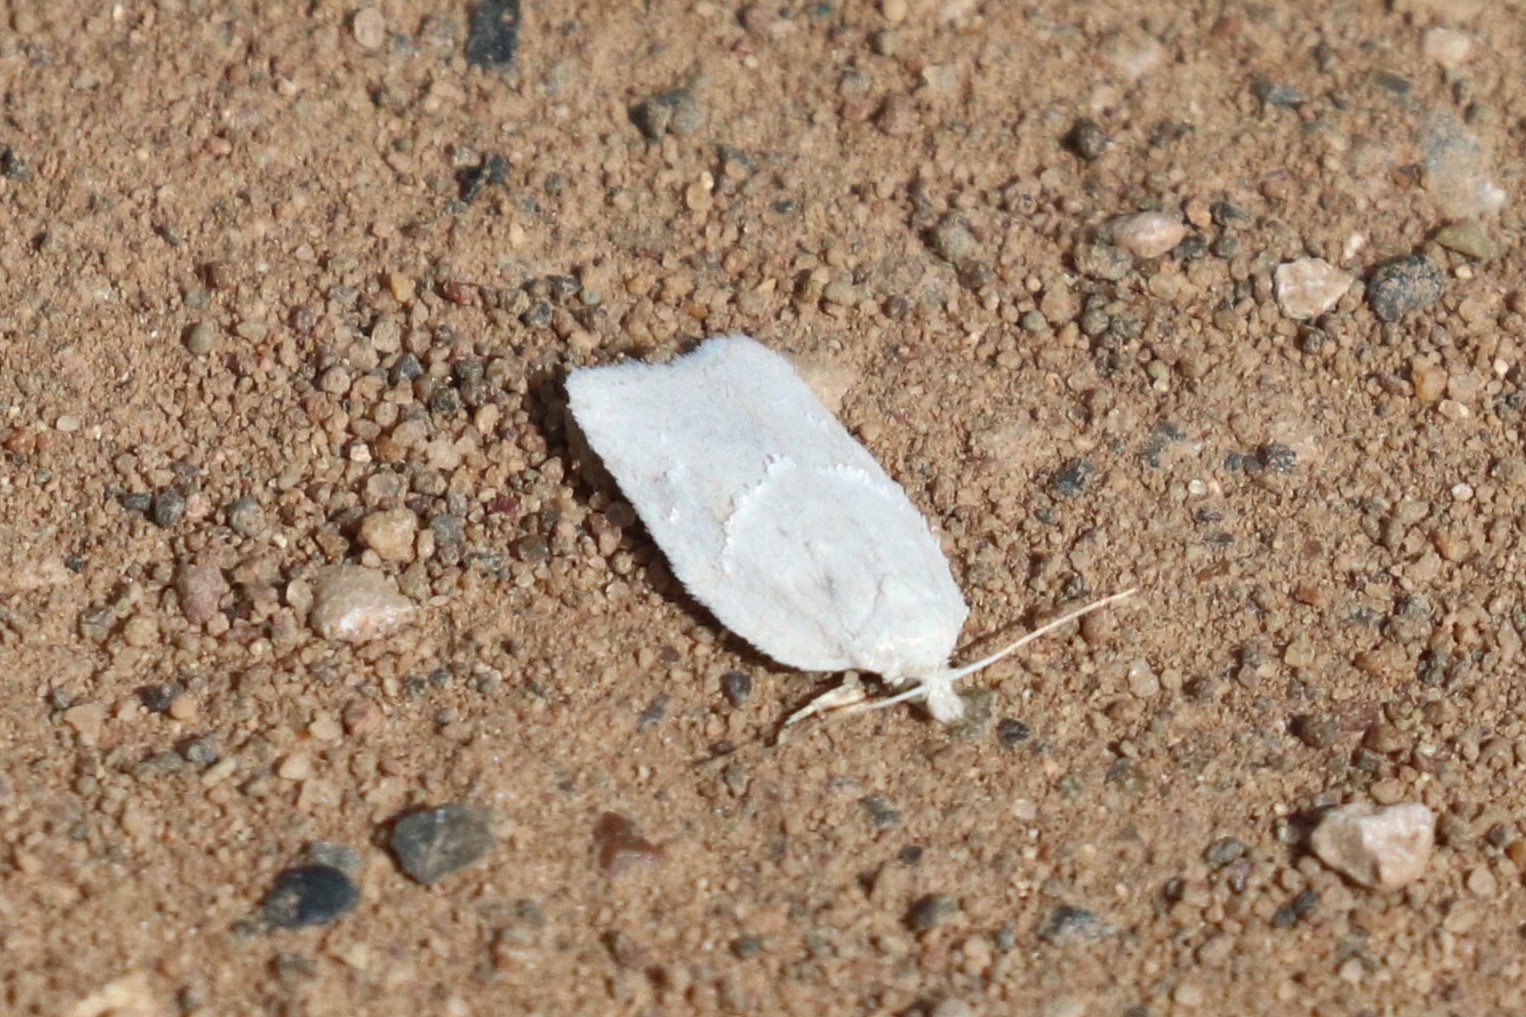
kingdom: Animalia
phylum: Arthropoda
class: Insecta
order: Lepidoptera
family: Tortricidae
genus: Acleris
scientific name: Acleris logiana
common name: Grey birch button
